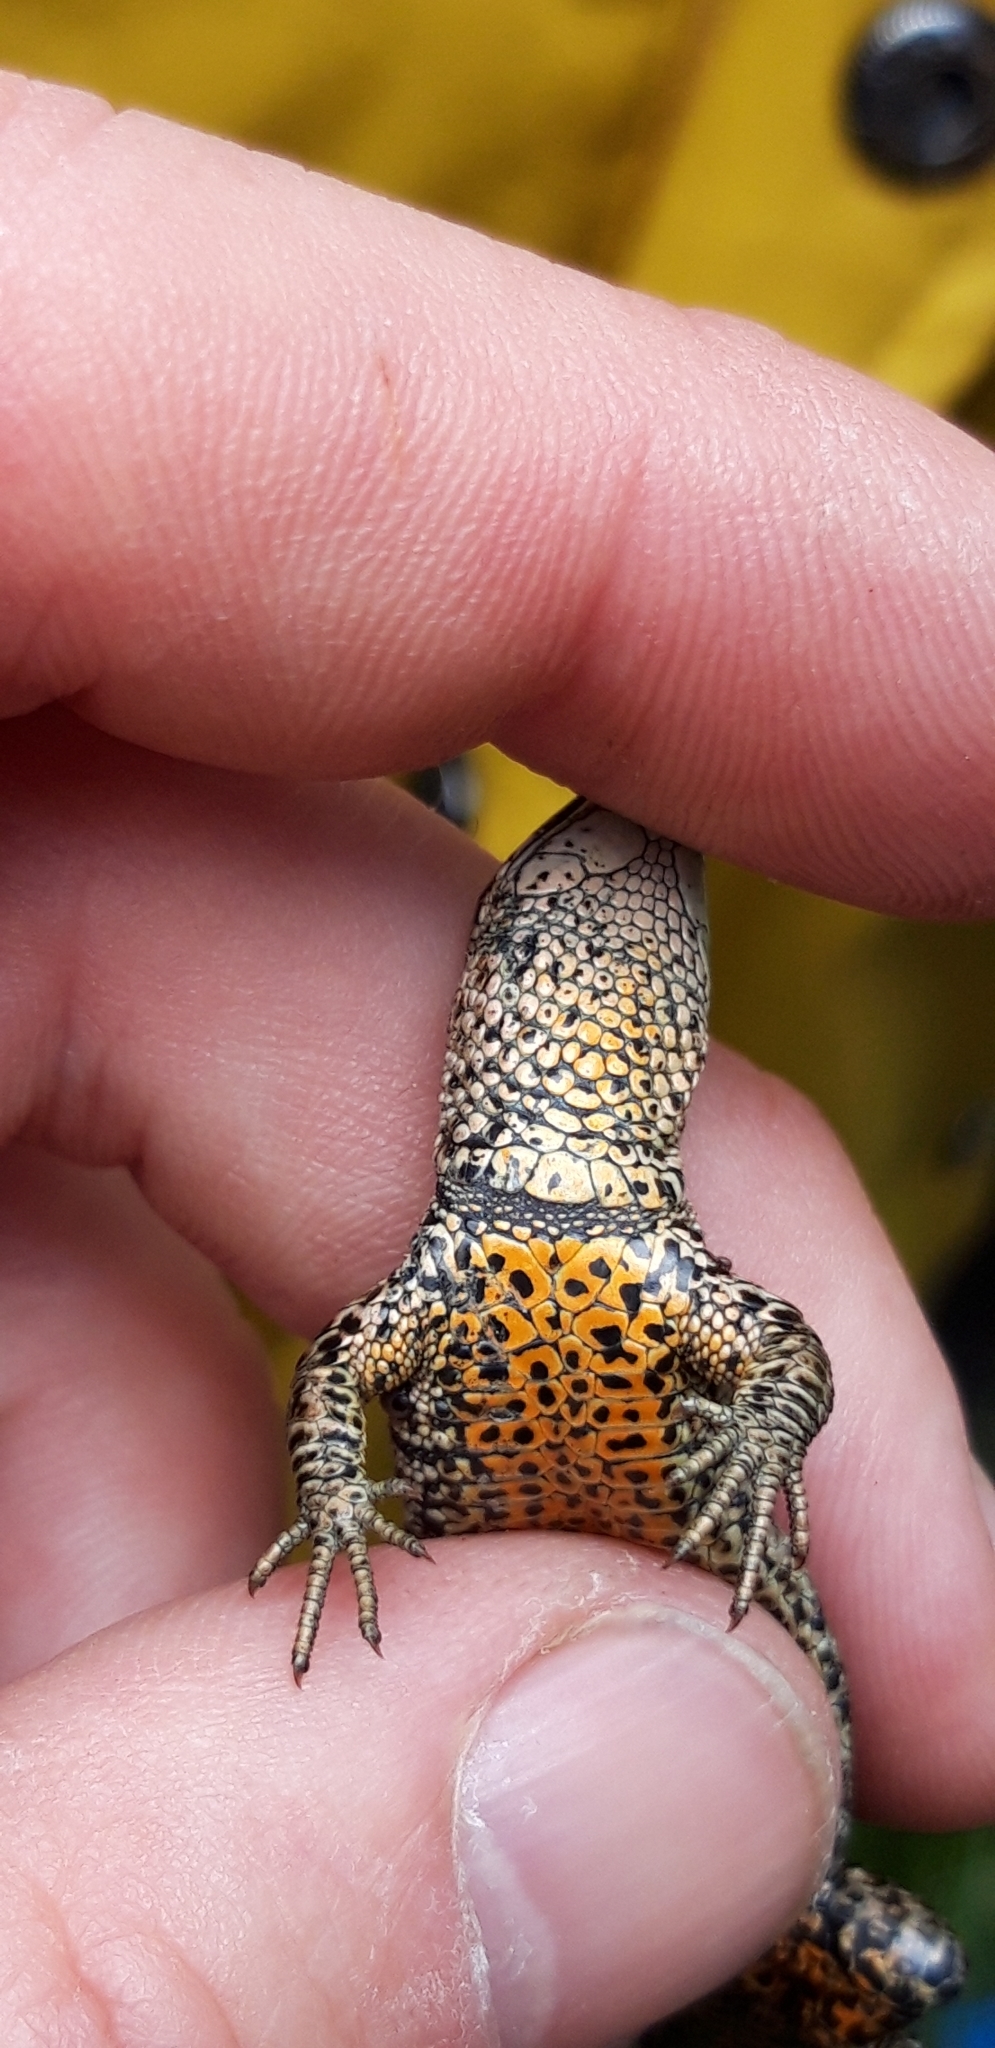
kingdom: Animalia
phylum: Chordata
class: Squamata
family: Lacertidae
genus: Zootoca
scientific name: Zootoca vivipara
